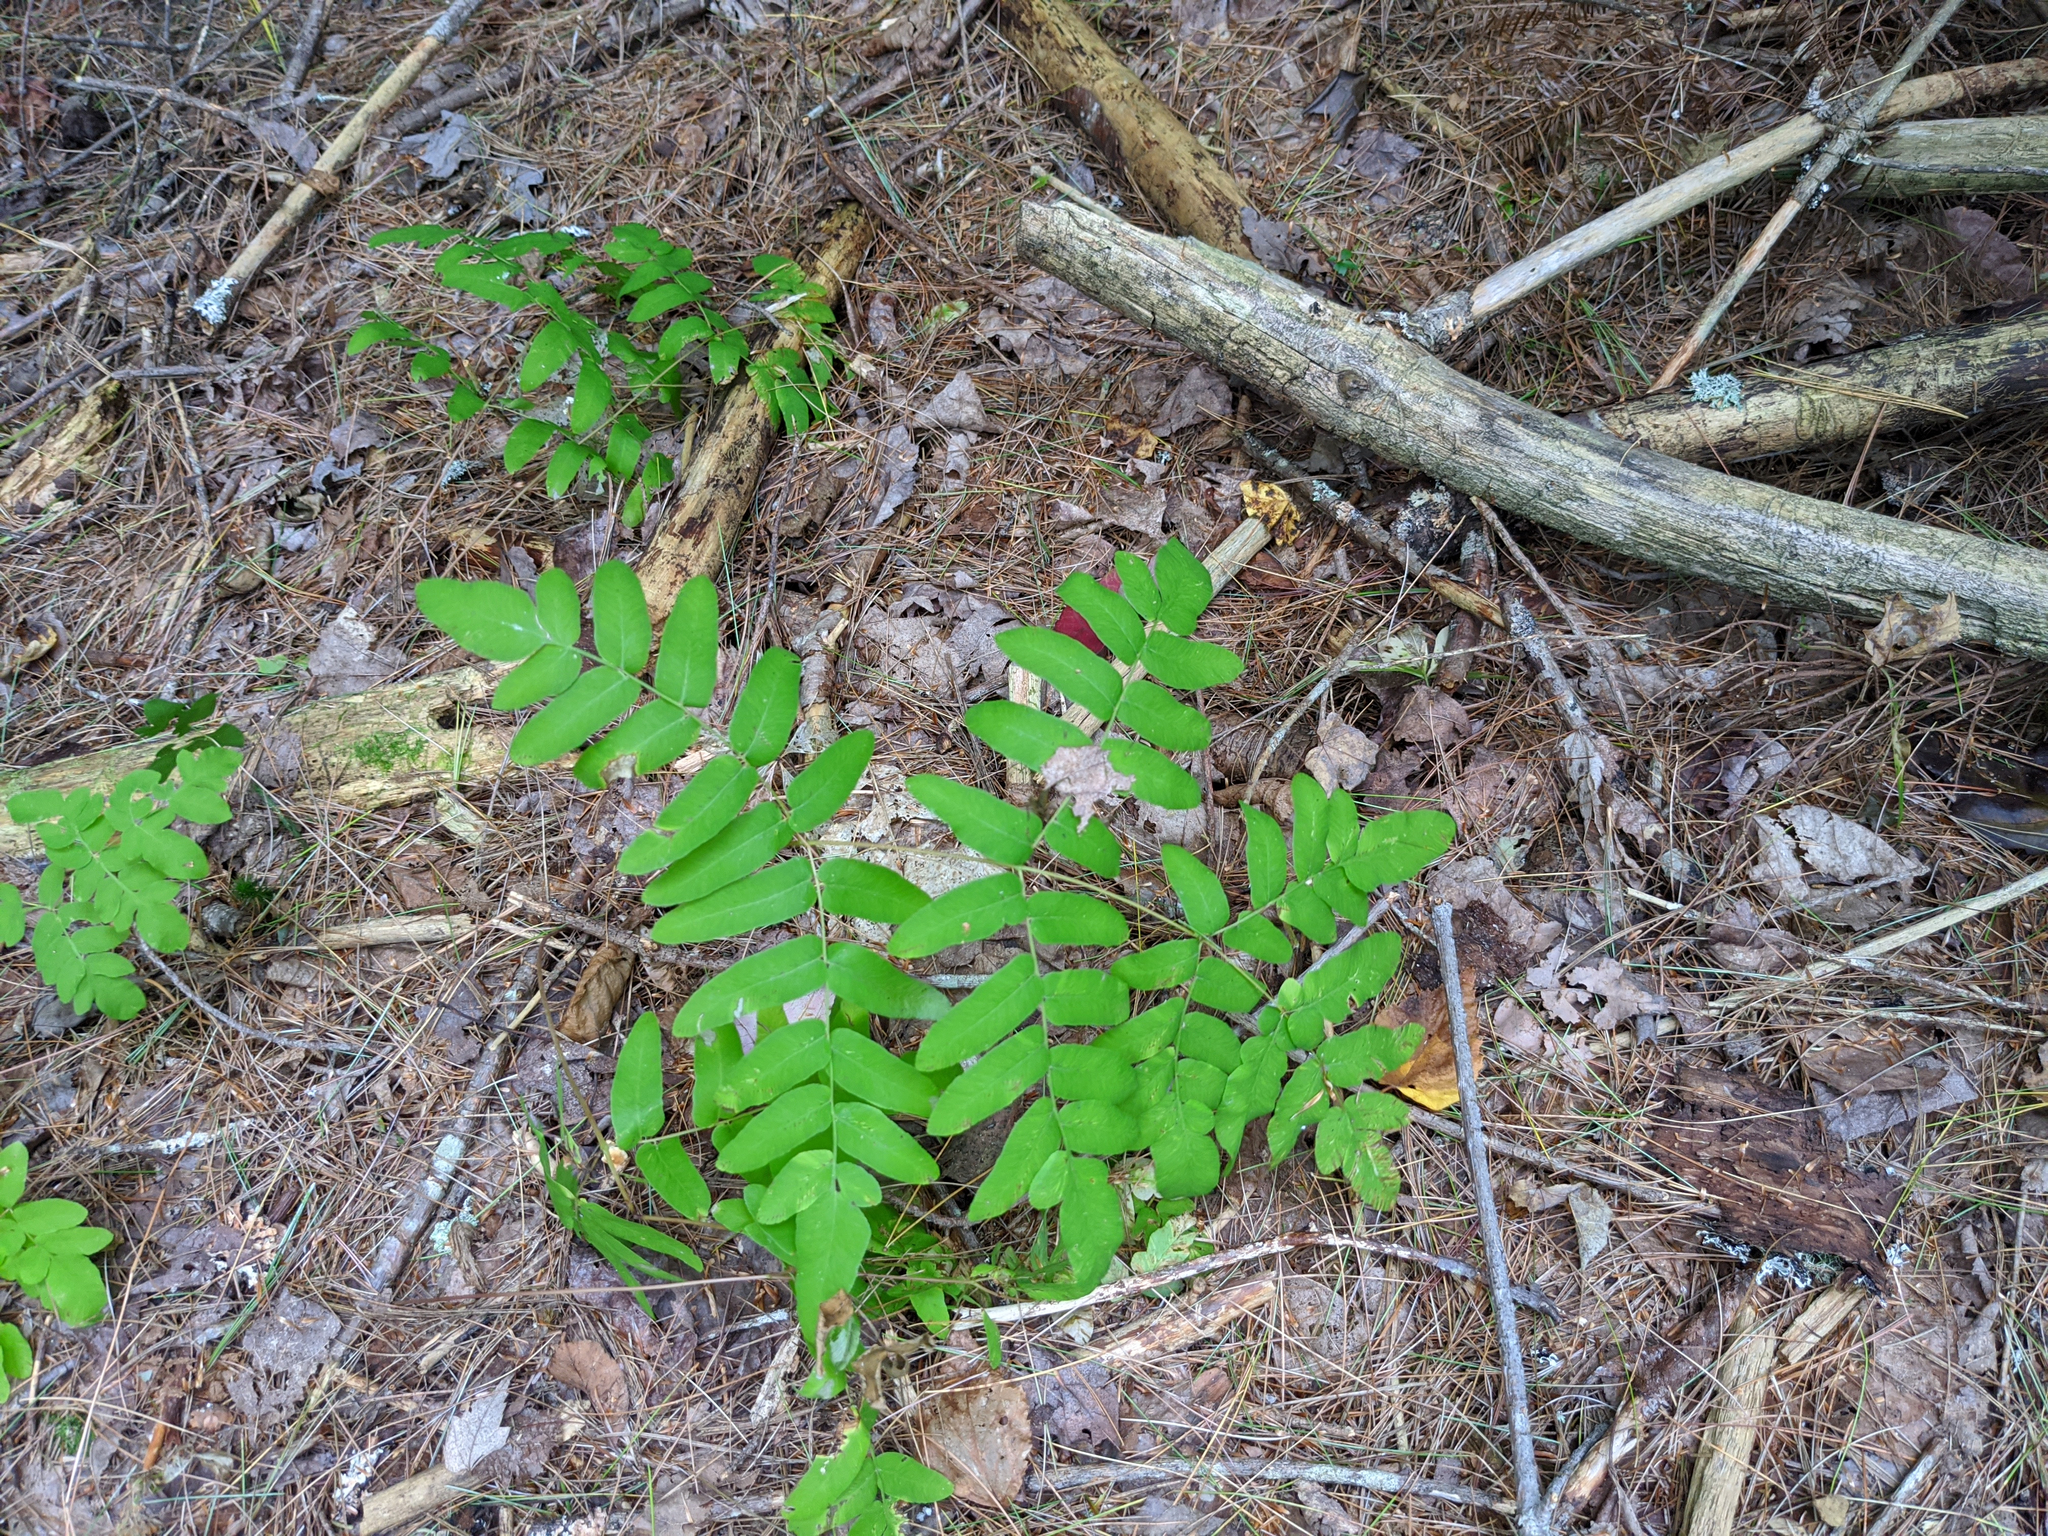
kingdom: Plantae
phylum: Tracheophyta
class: Polypodiopsida
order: Osmundales
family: Osmundaceae
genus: Osmunda
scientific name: Osmunda spectabilis
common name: American royal fern
